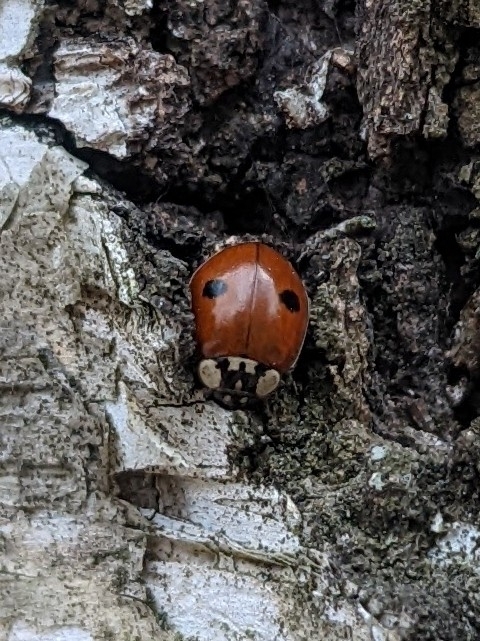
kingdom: Animalia
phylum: Arthropoda
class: Insecta
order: Coleoptera
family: Coccinellidae
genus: Adalia
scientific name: Adalia bipunctata
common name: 2-spot ladybird
